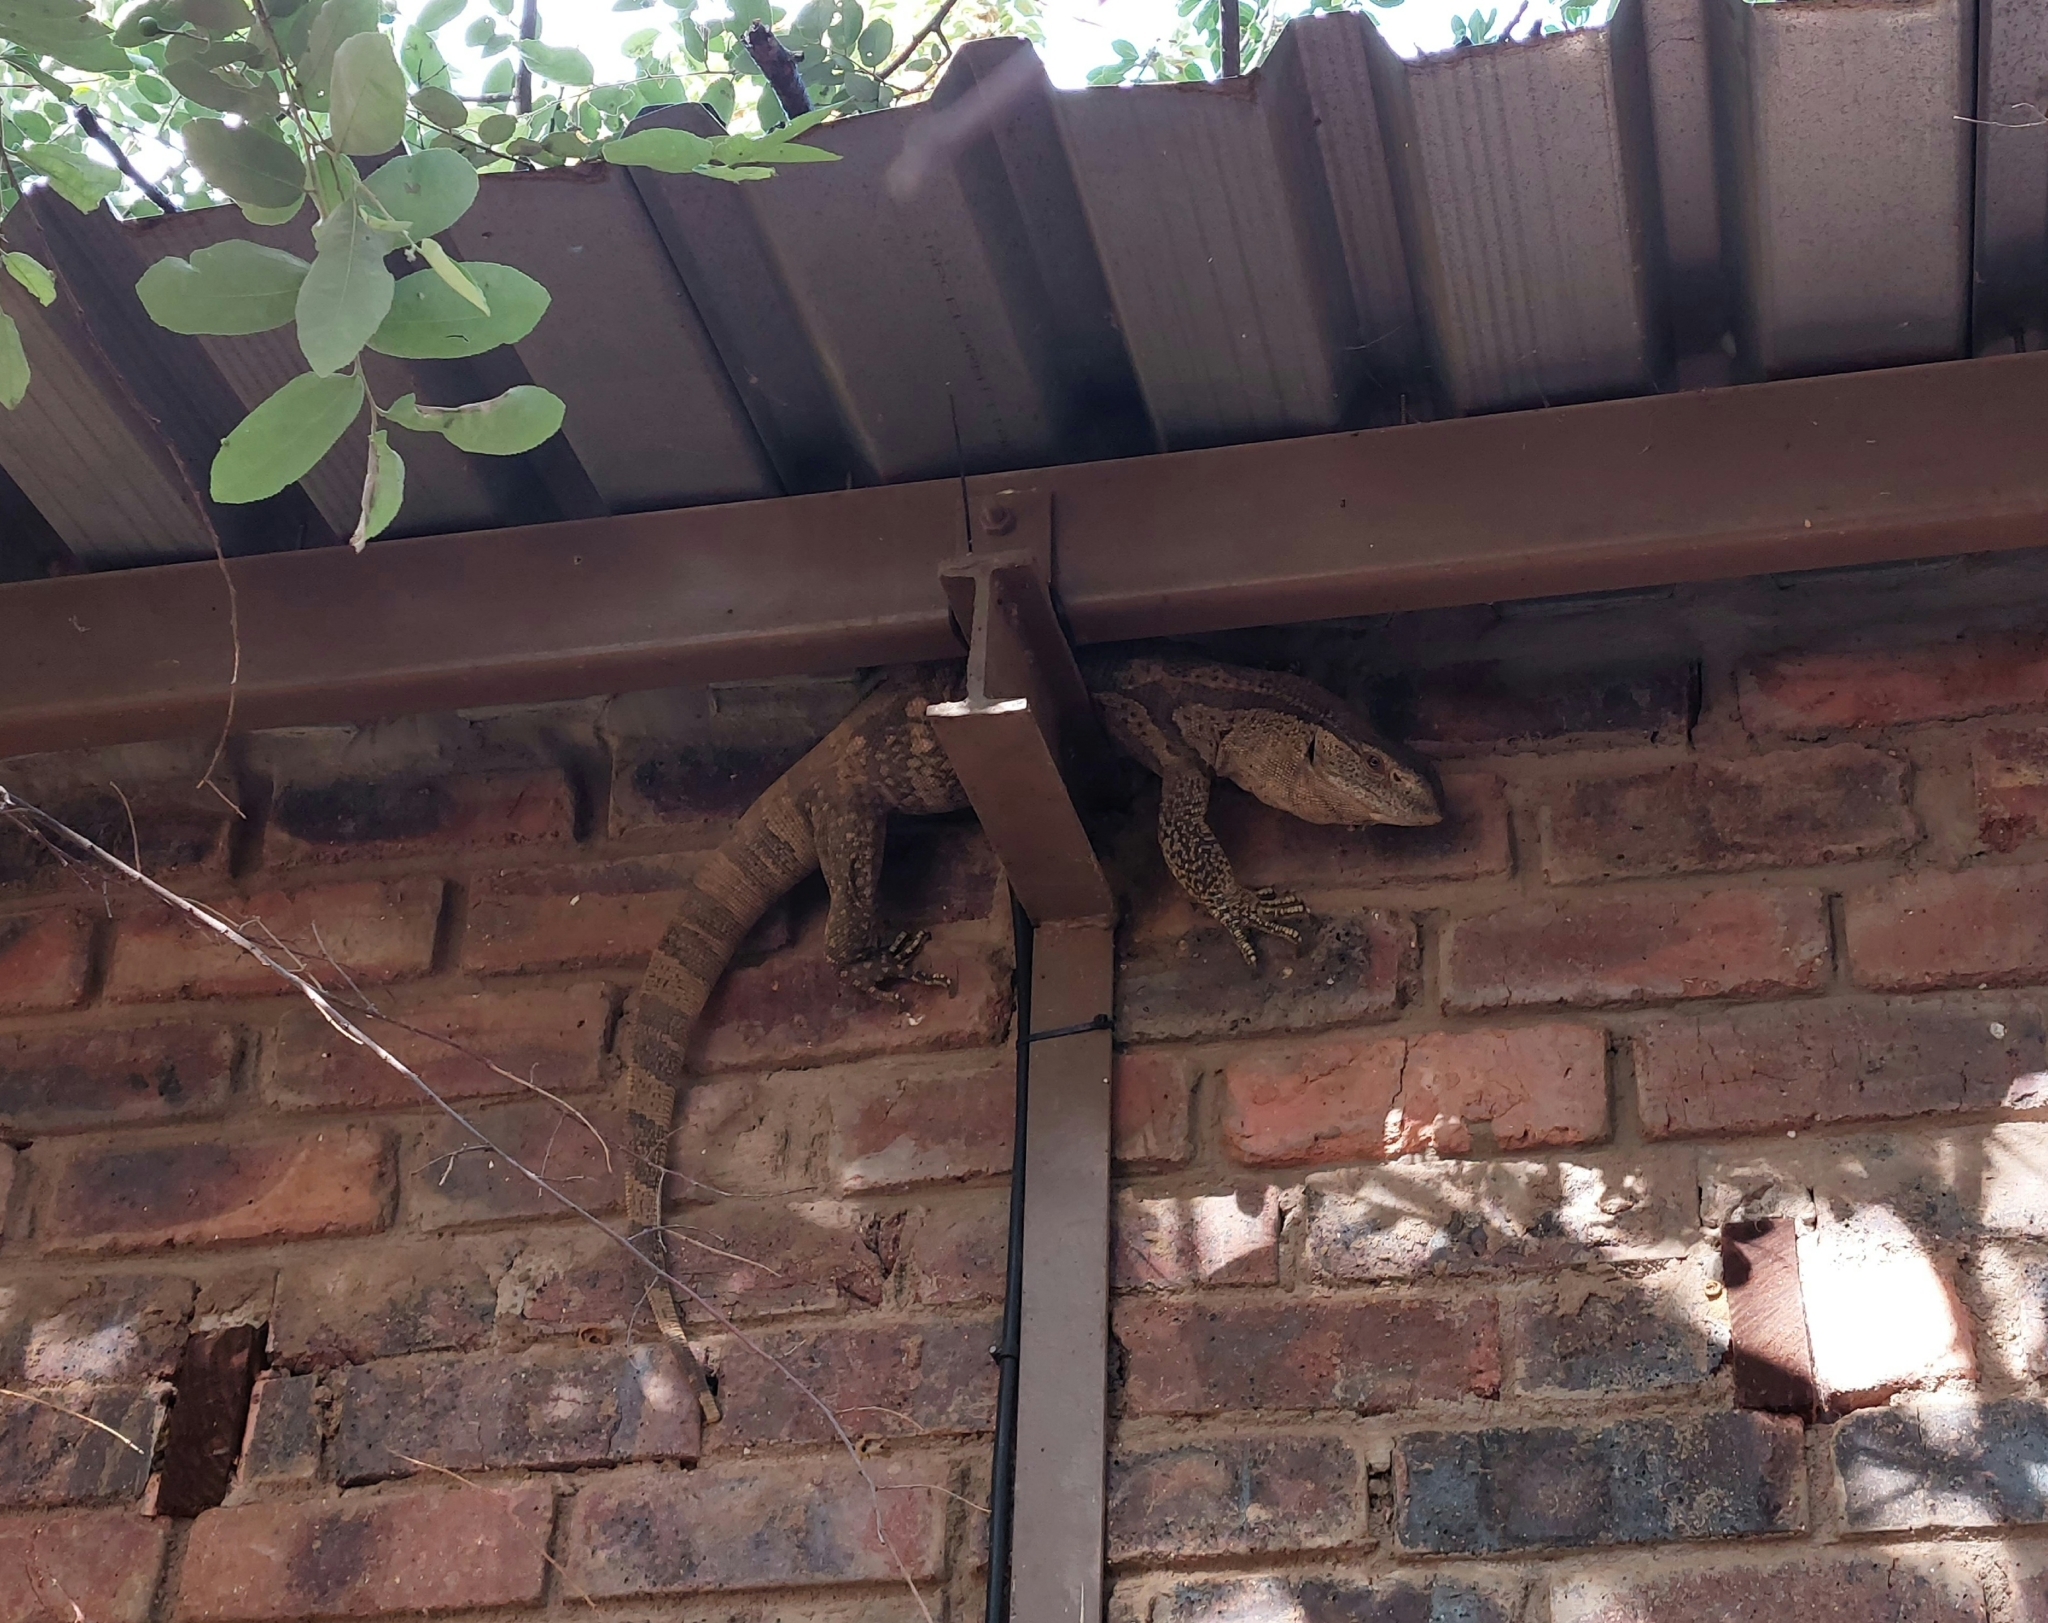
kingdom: Animalia
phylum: Chordata
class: Squamata
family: Varanidae
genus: Varanus
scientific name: Varanus albigularis
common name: White-throated monitor
